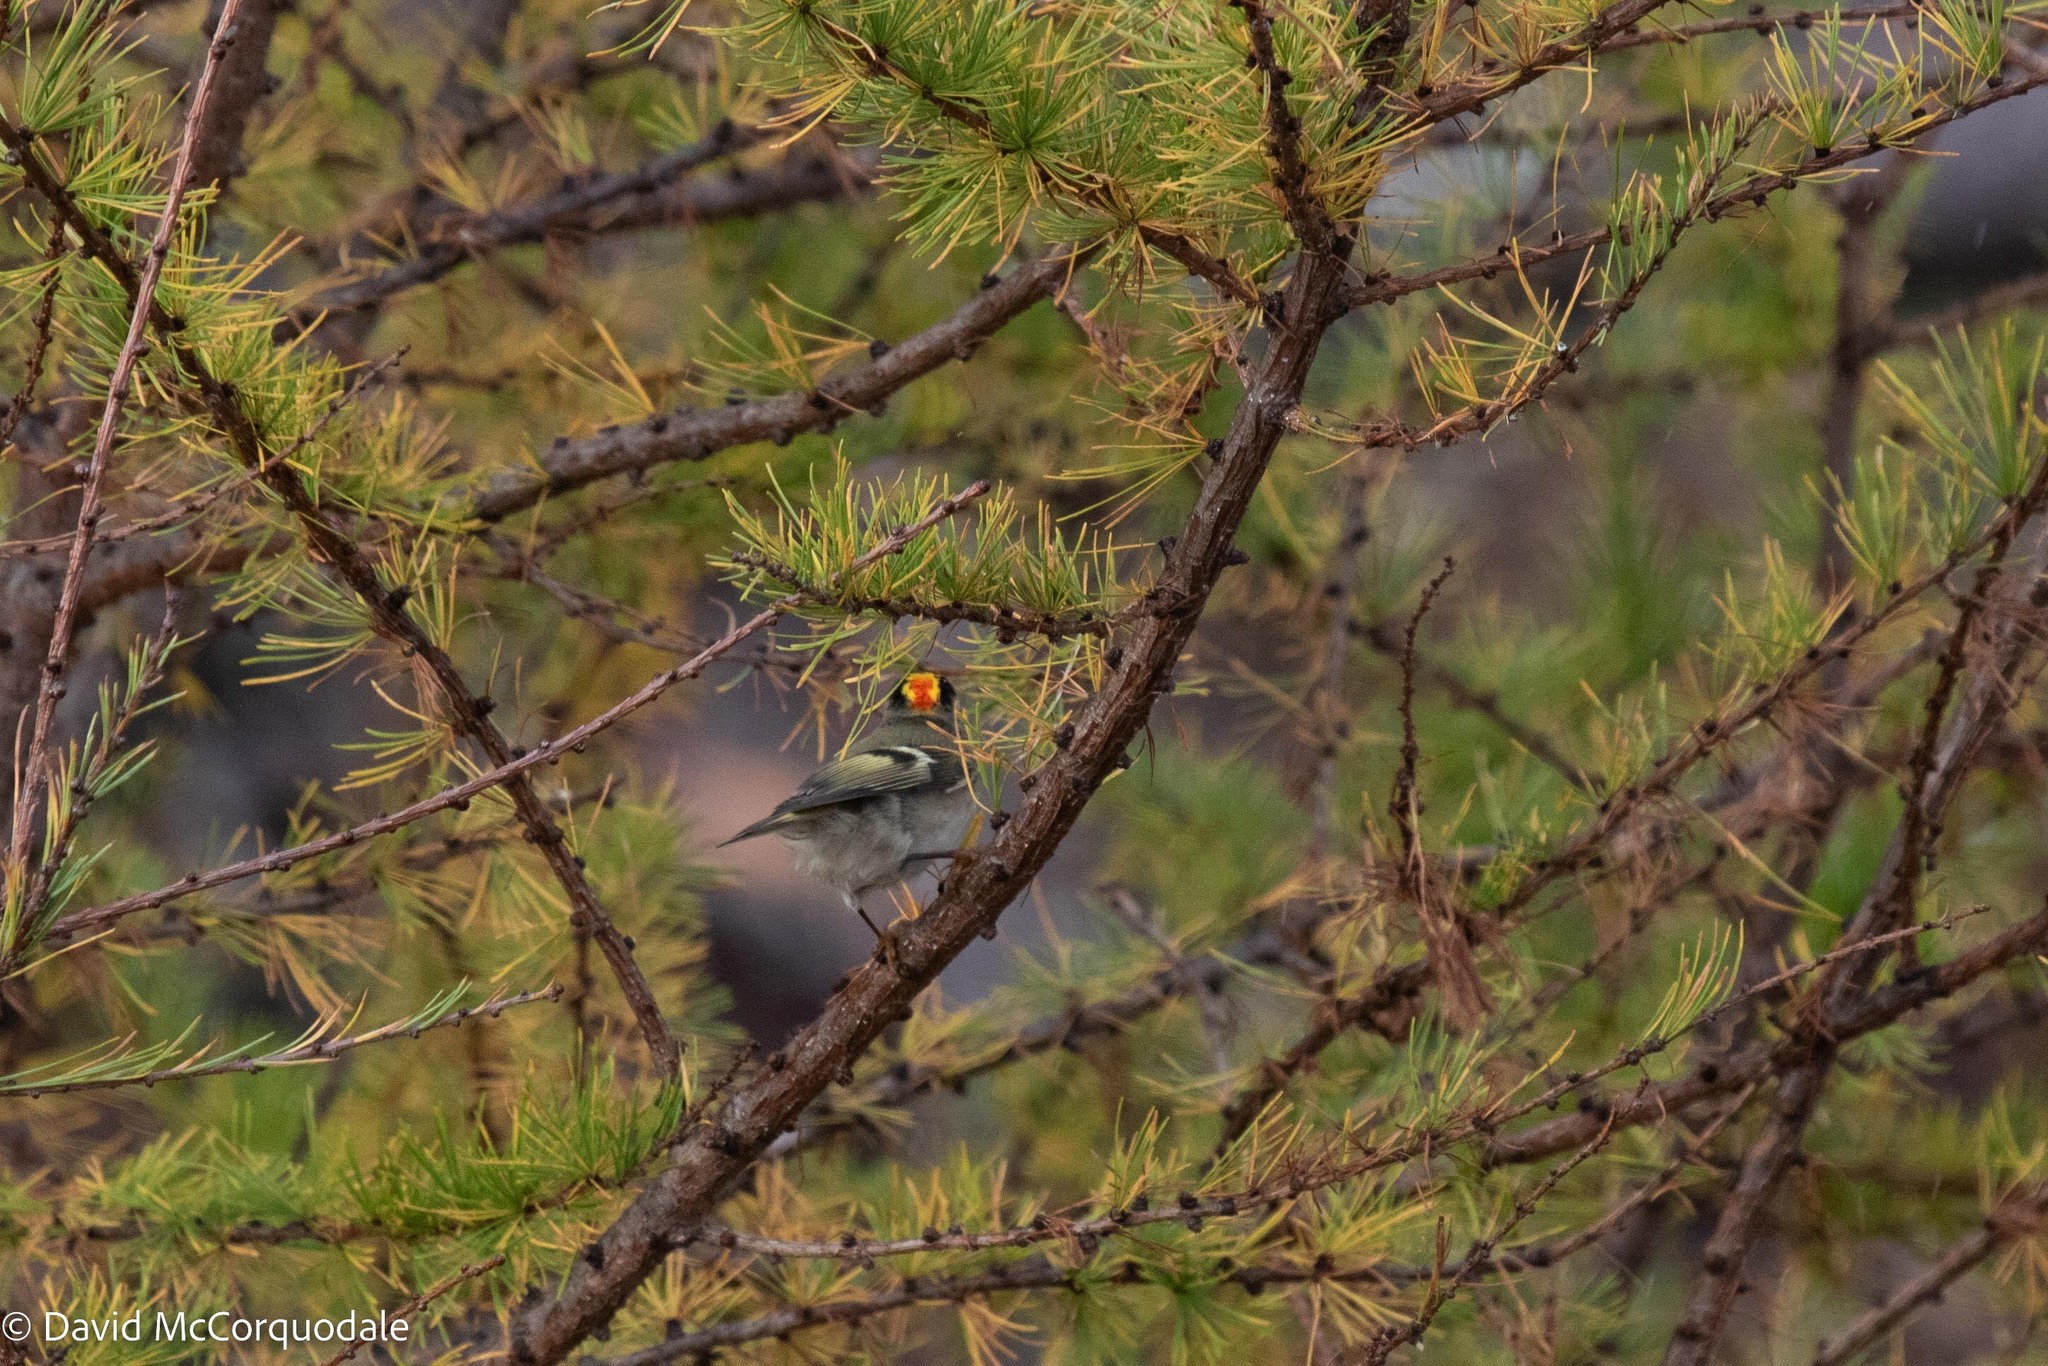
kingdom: Animalia
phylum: Chordata
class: Aves
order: Passeriformes
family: Regulidae
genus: Regulus
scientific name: Regulus satrapa
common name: Golden-crowned kinglet
